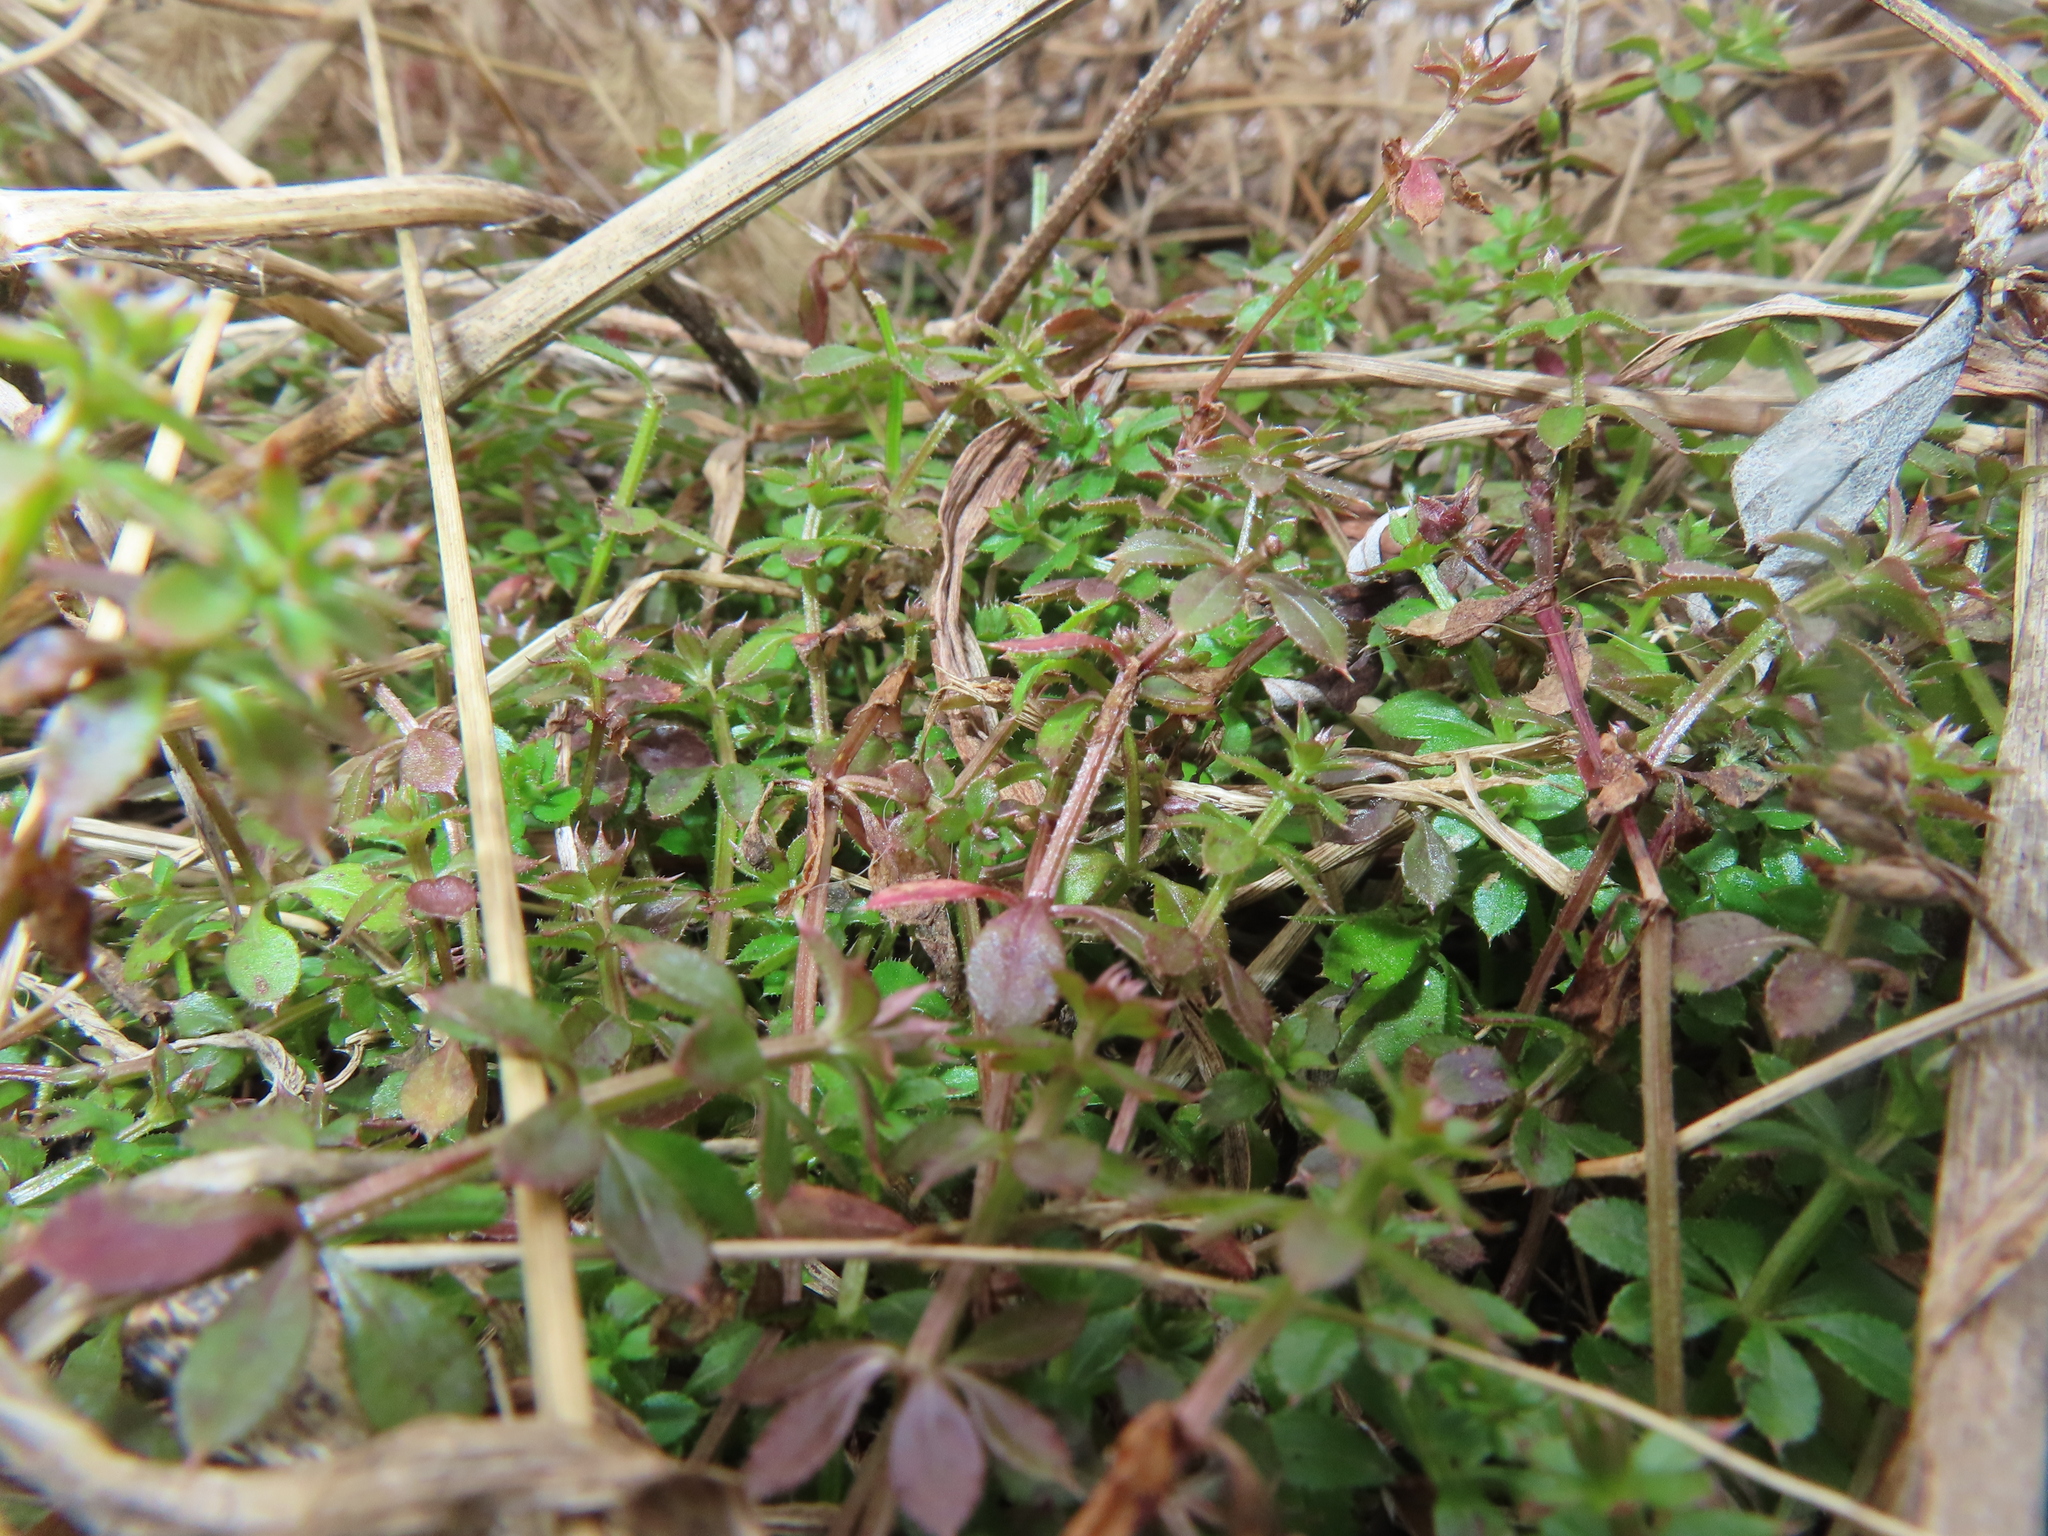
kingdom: Plantae
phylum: Tracheophyta
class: Magnoliopsida
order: Gentianales
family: Rubiaceae
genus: Galium
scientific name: Galium aparine
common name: Cleavers
